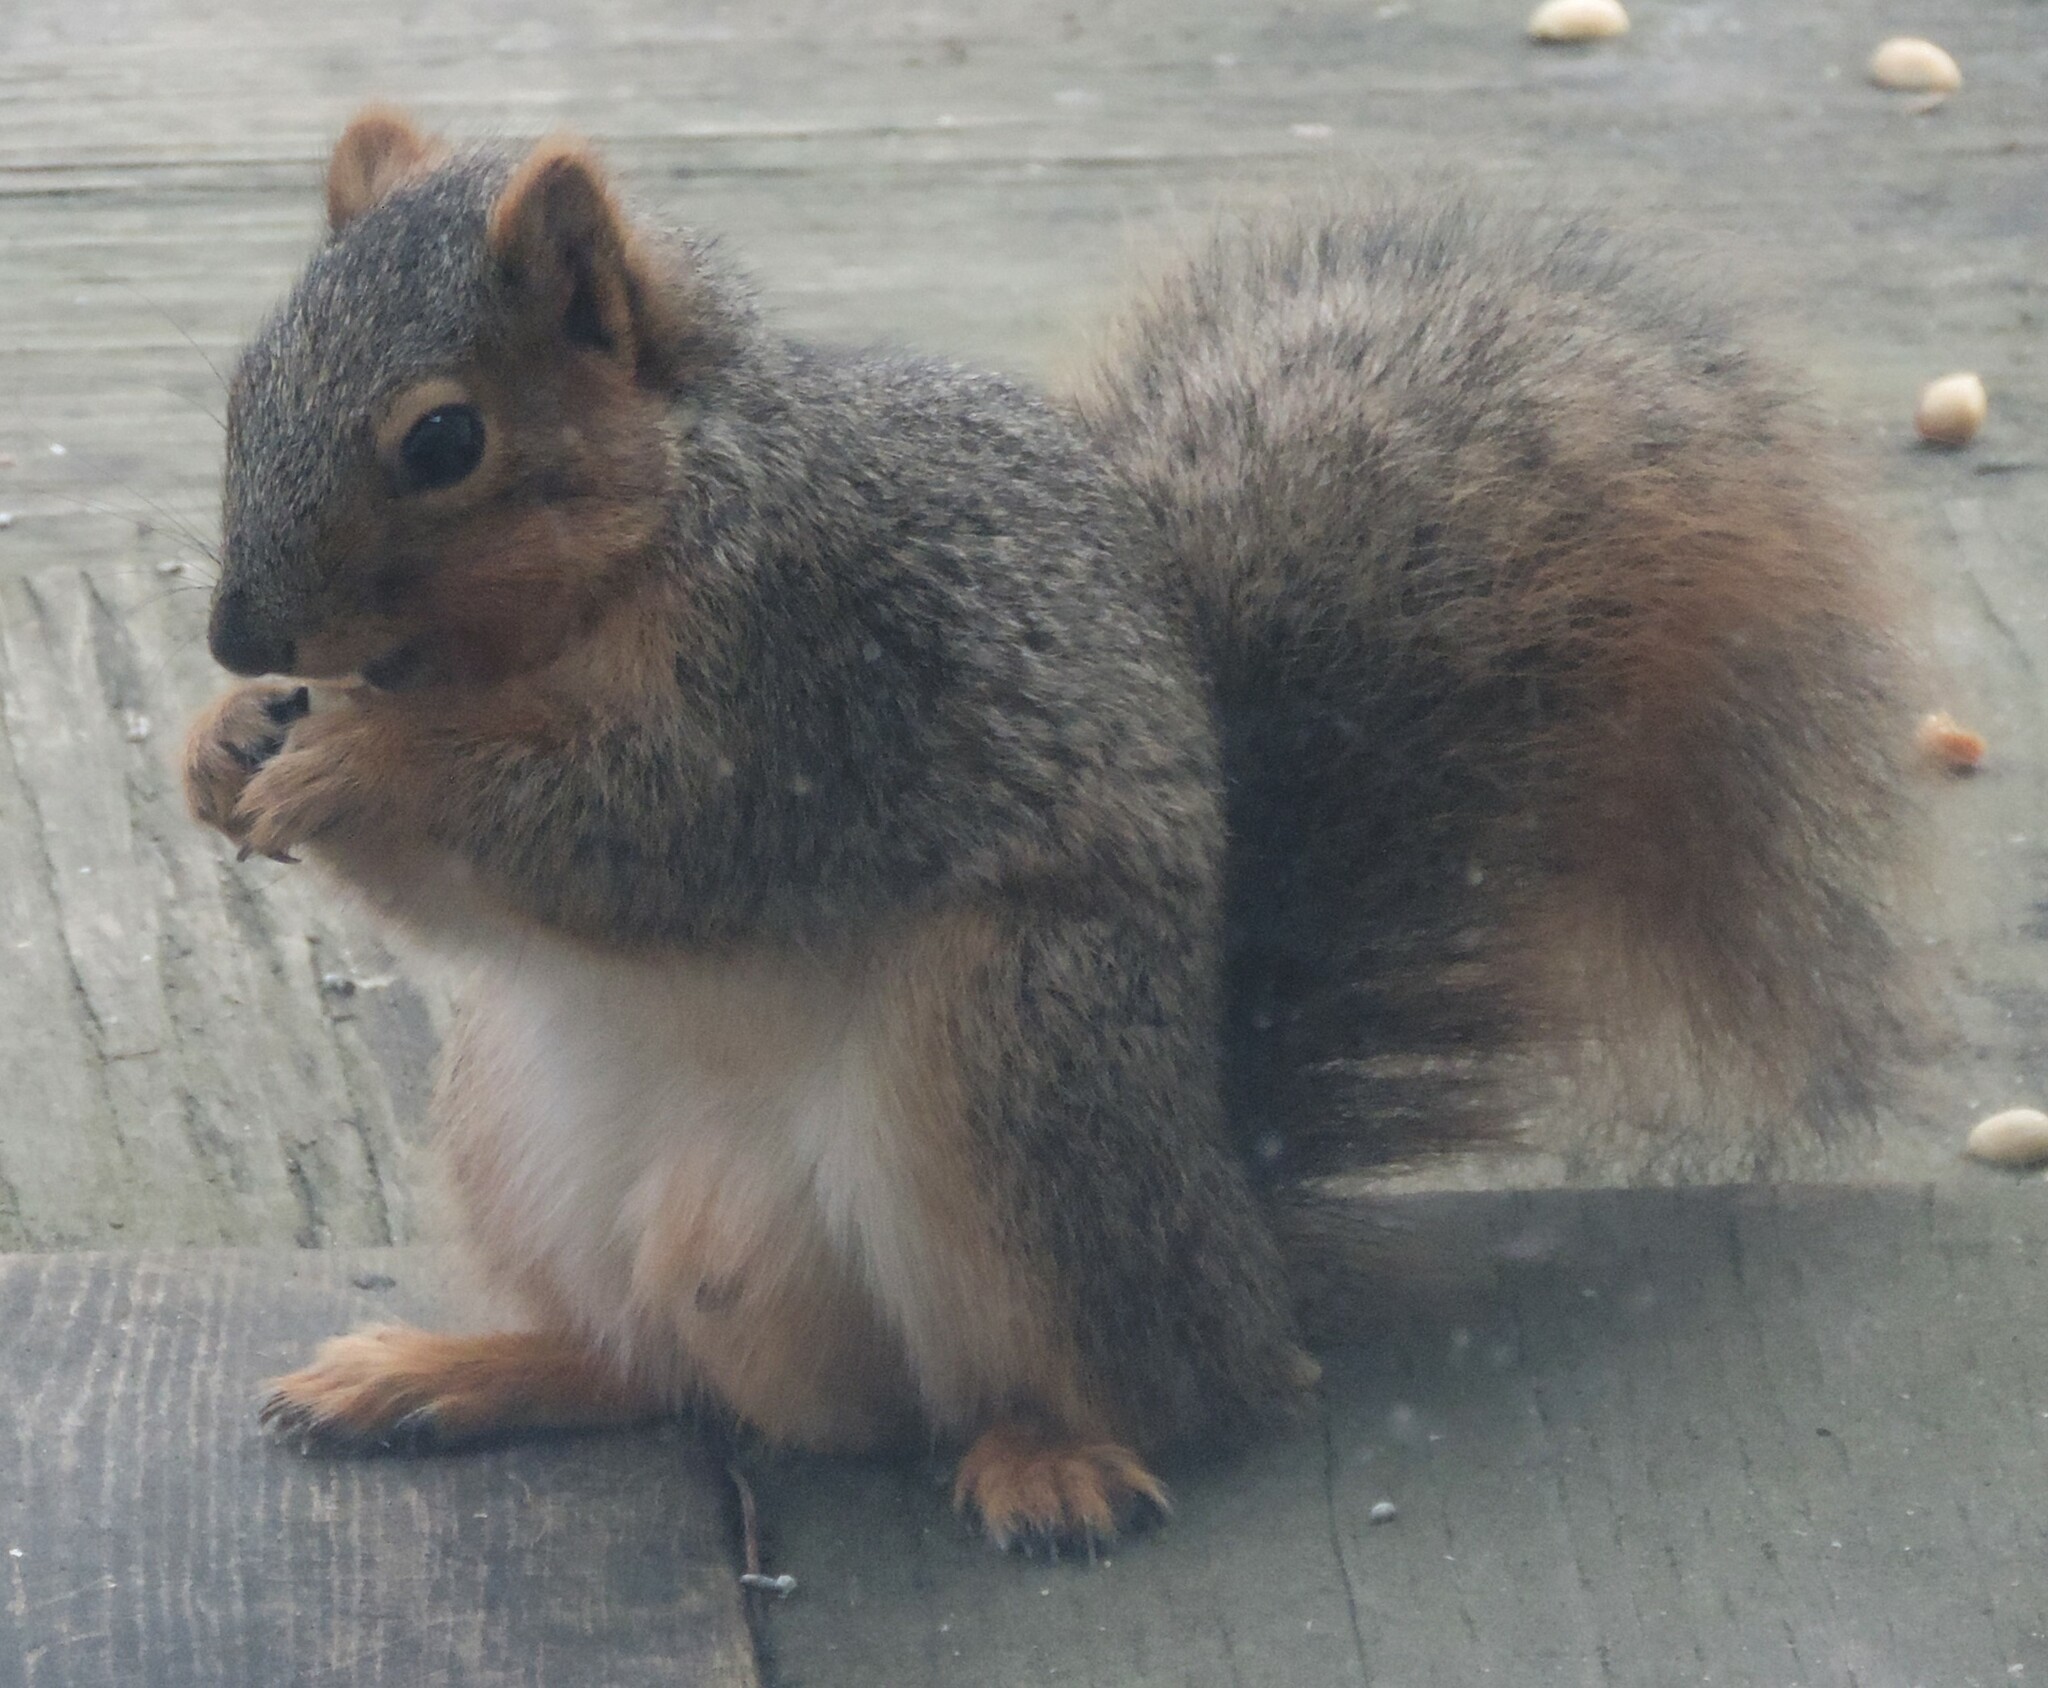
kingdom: Animalia
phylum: Chordata
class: Mammalia
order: Rodentia
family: Sciuridae
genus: Sciurus
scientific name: Sciurus niger
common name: Fox squirrel
